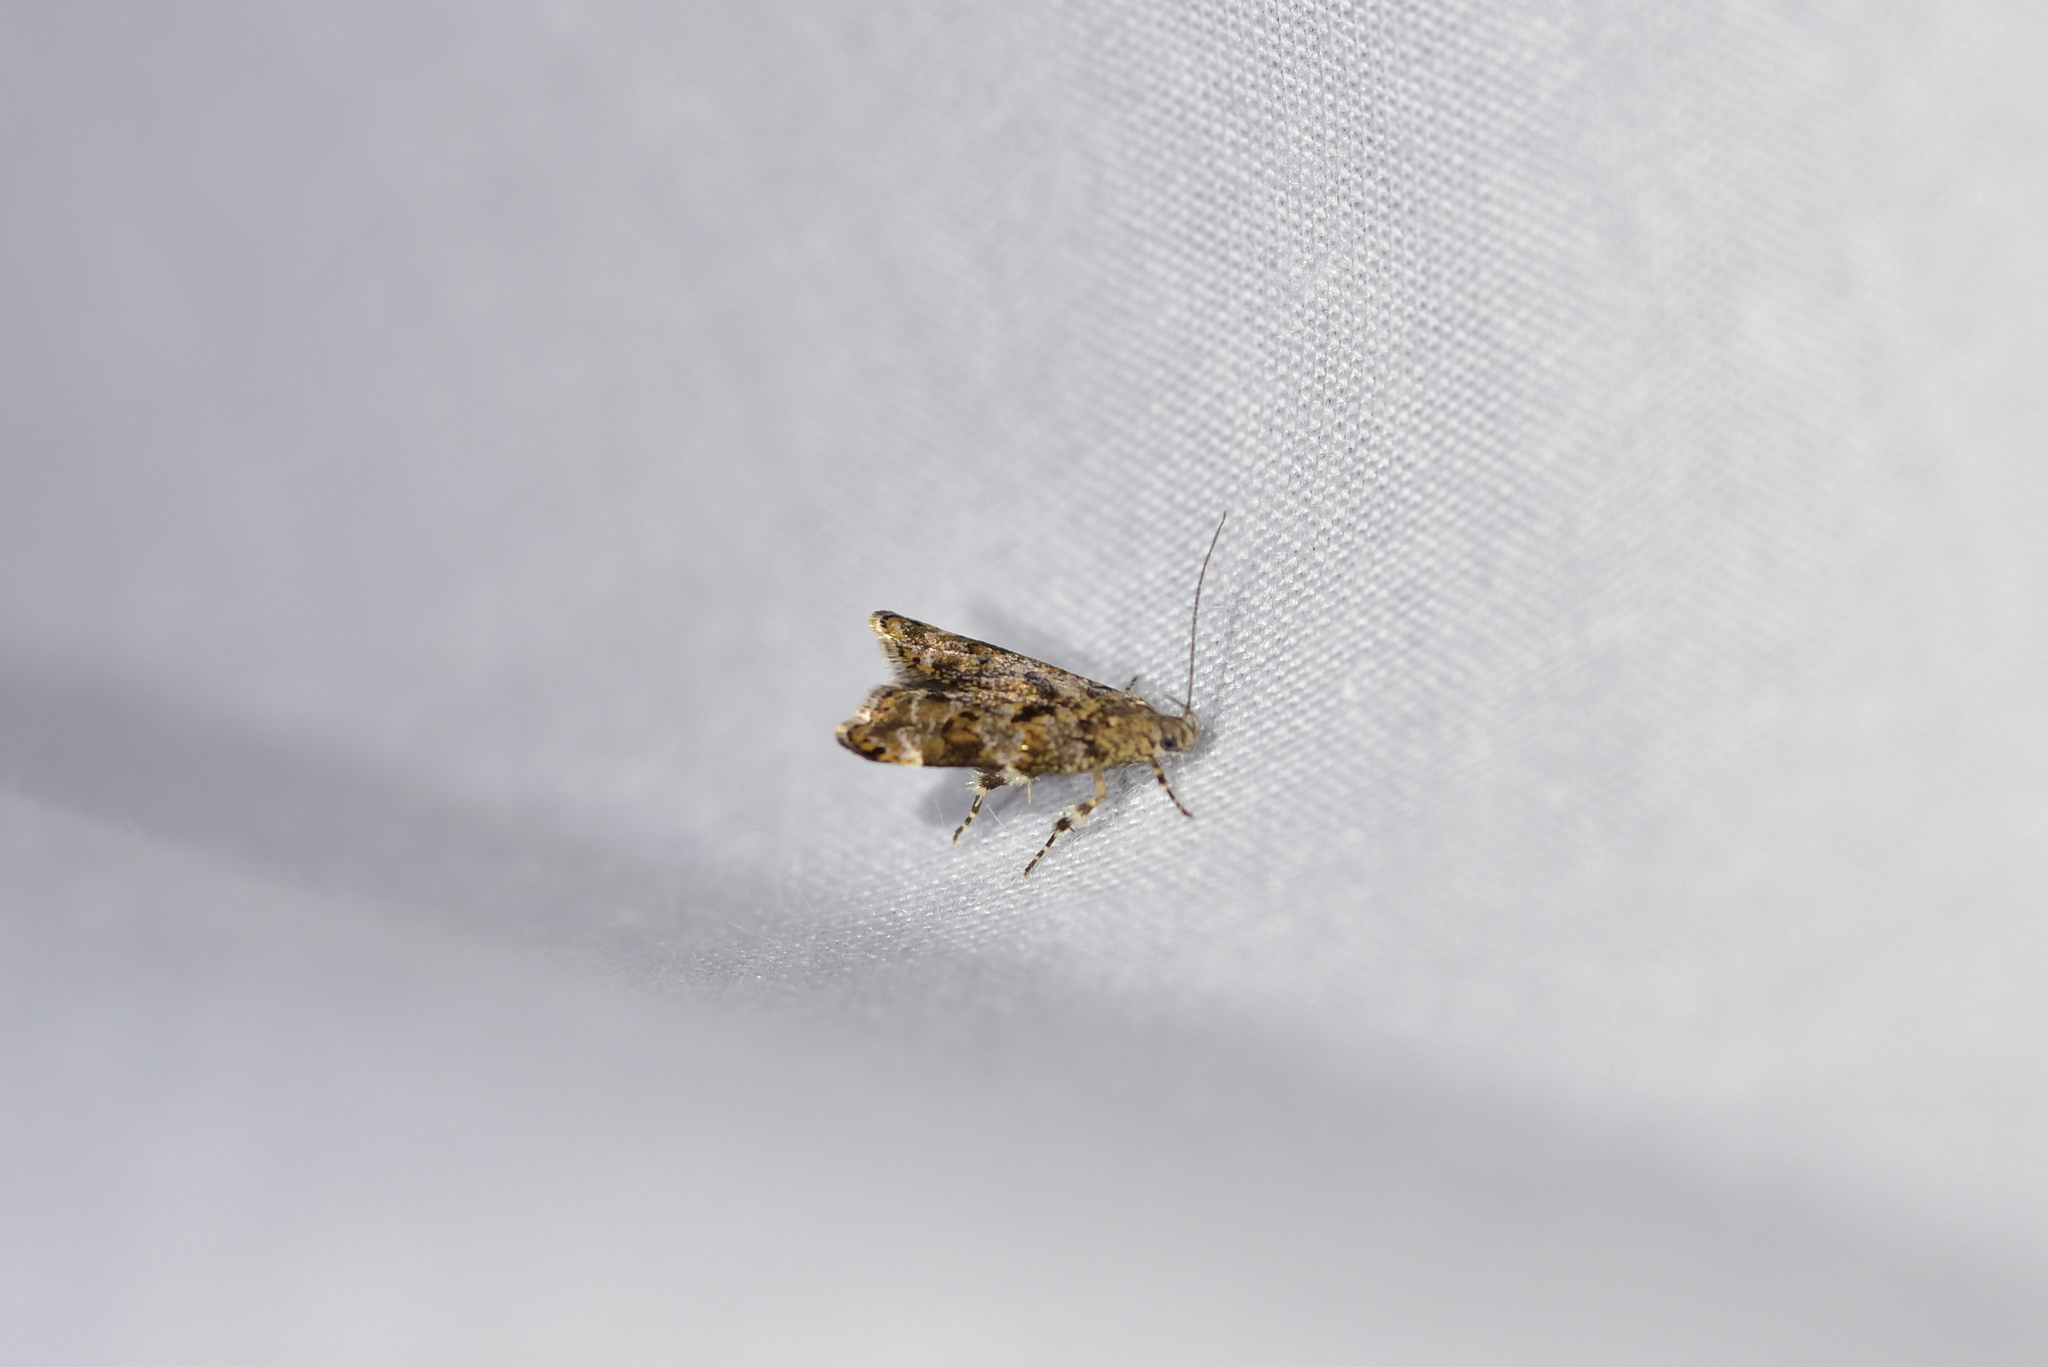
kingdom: Animalia
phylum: Arthropoda
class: Insecta
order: Lepidoptera
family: Oecophoridae
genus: Gymnobathra
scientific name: Gymnobathra omphalota
